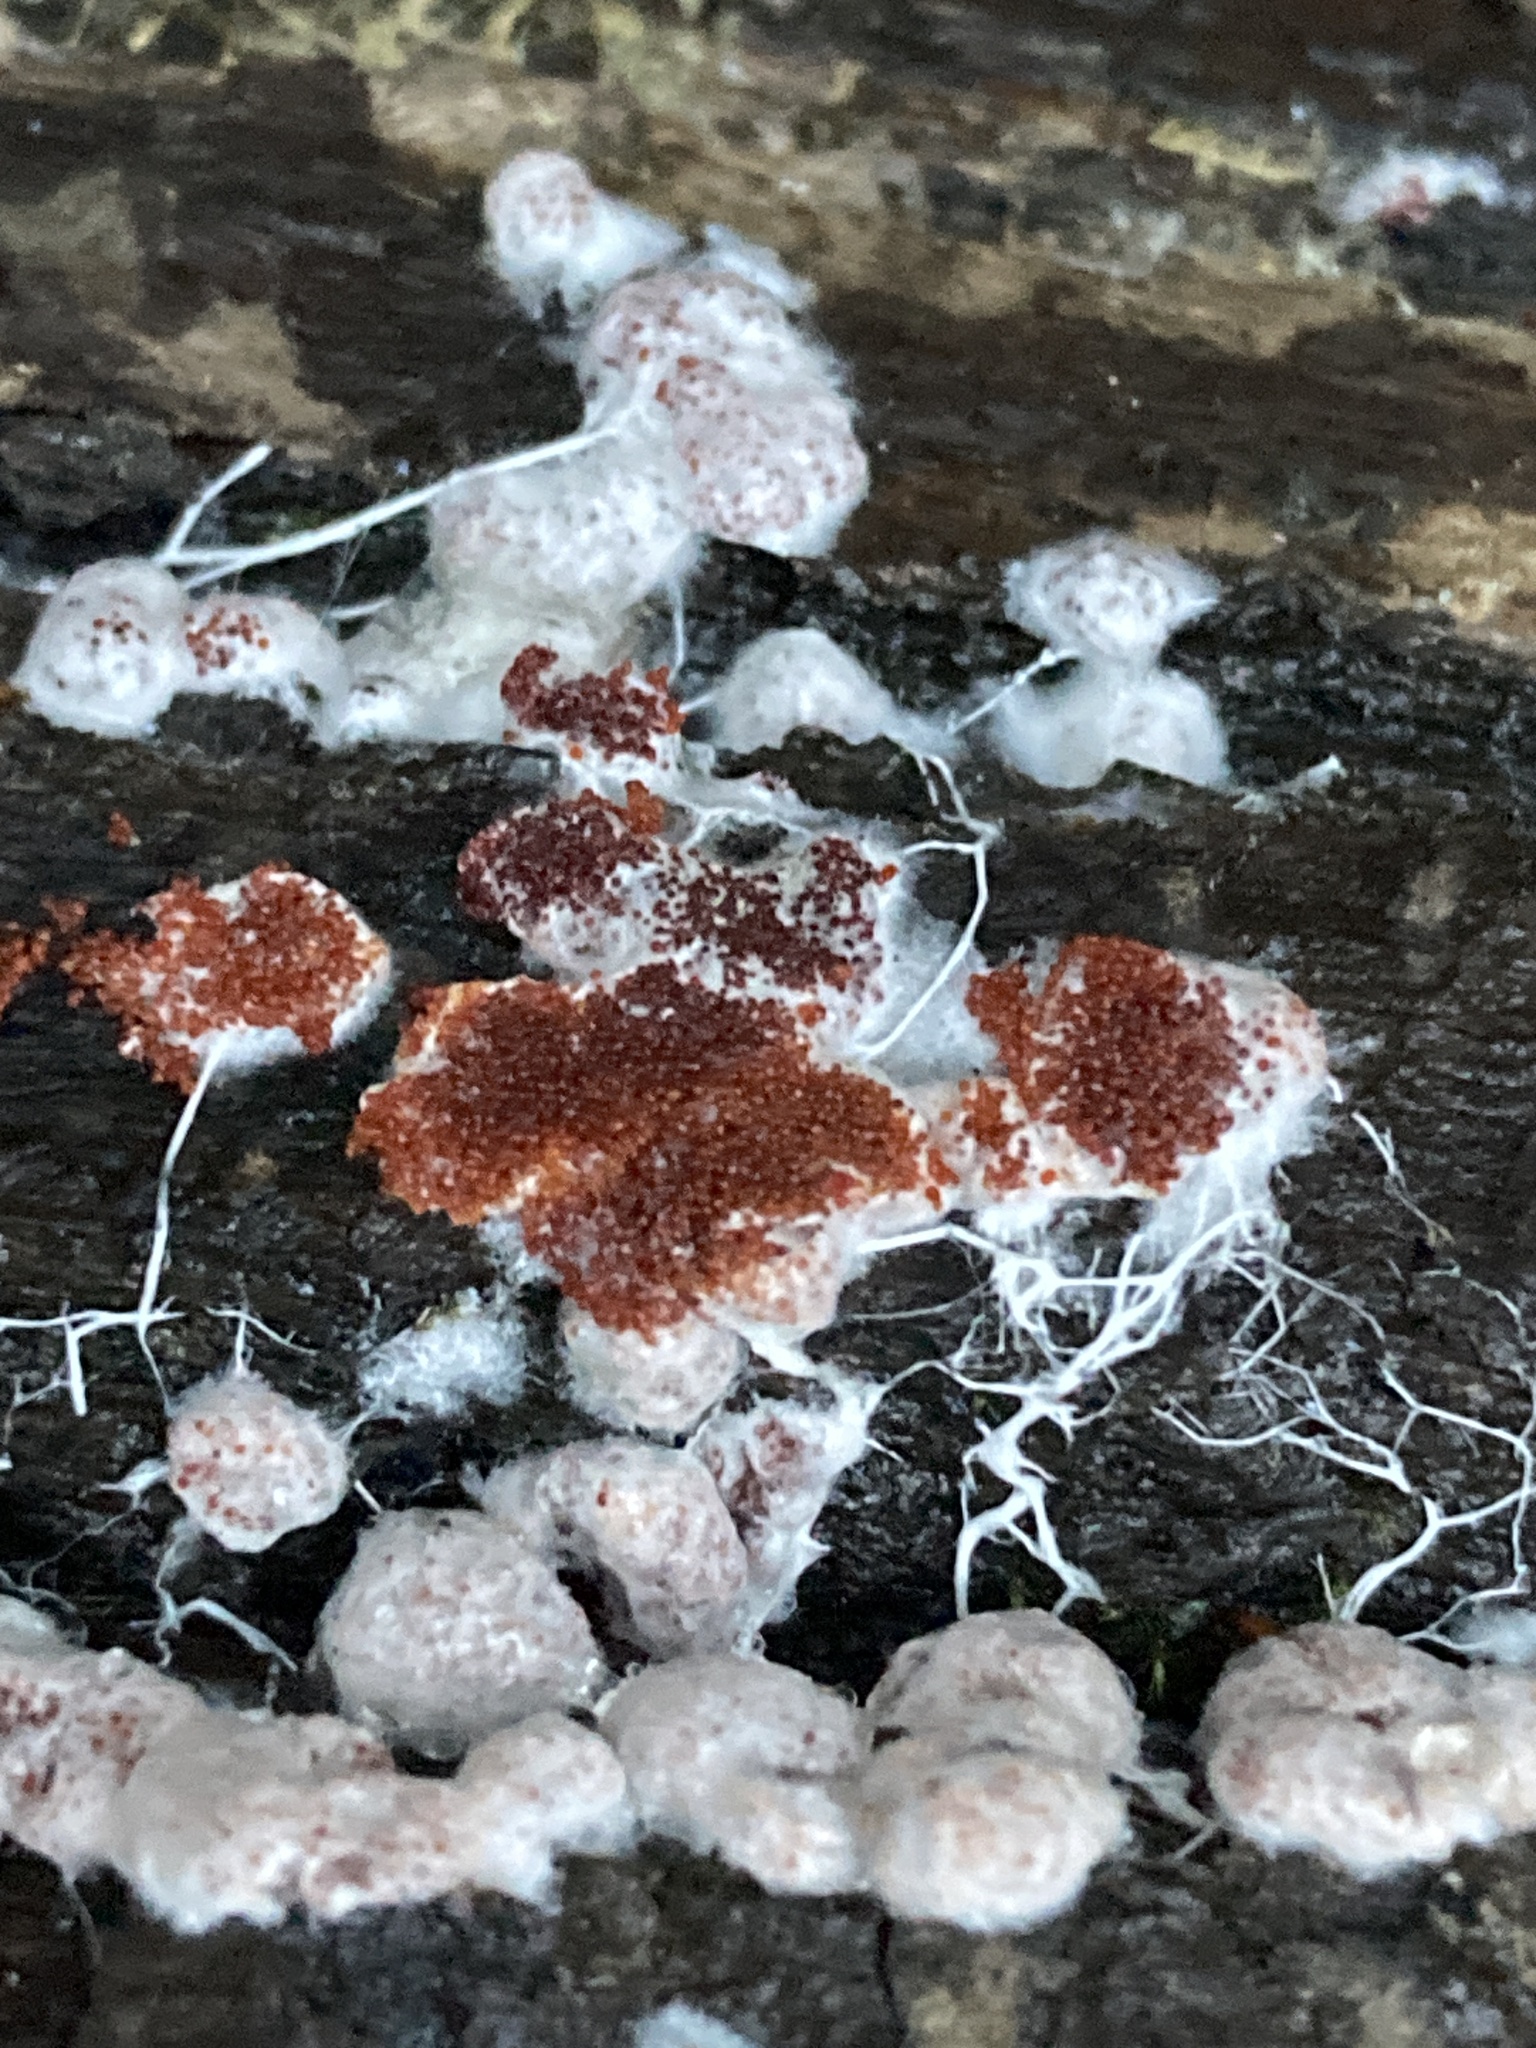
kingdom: Fungi
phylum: Basidiomycota
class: Agaricomycetes
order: Agaricales
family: Stephanosporaceae
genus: Myriococcum
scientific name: Myriococcum praecox
